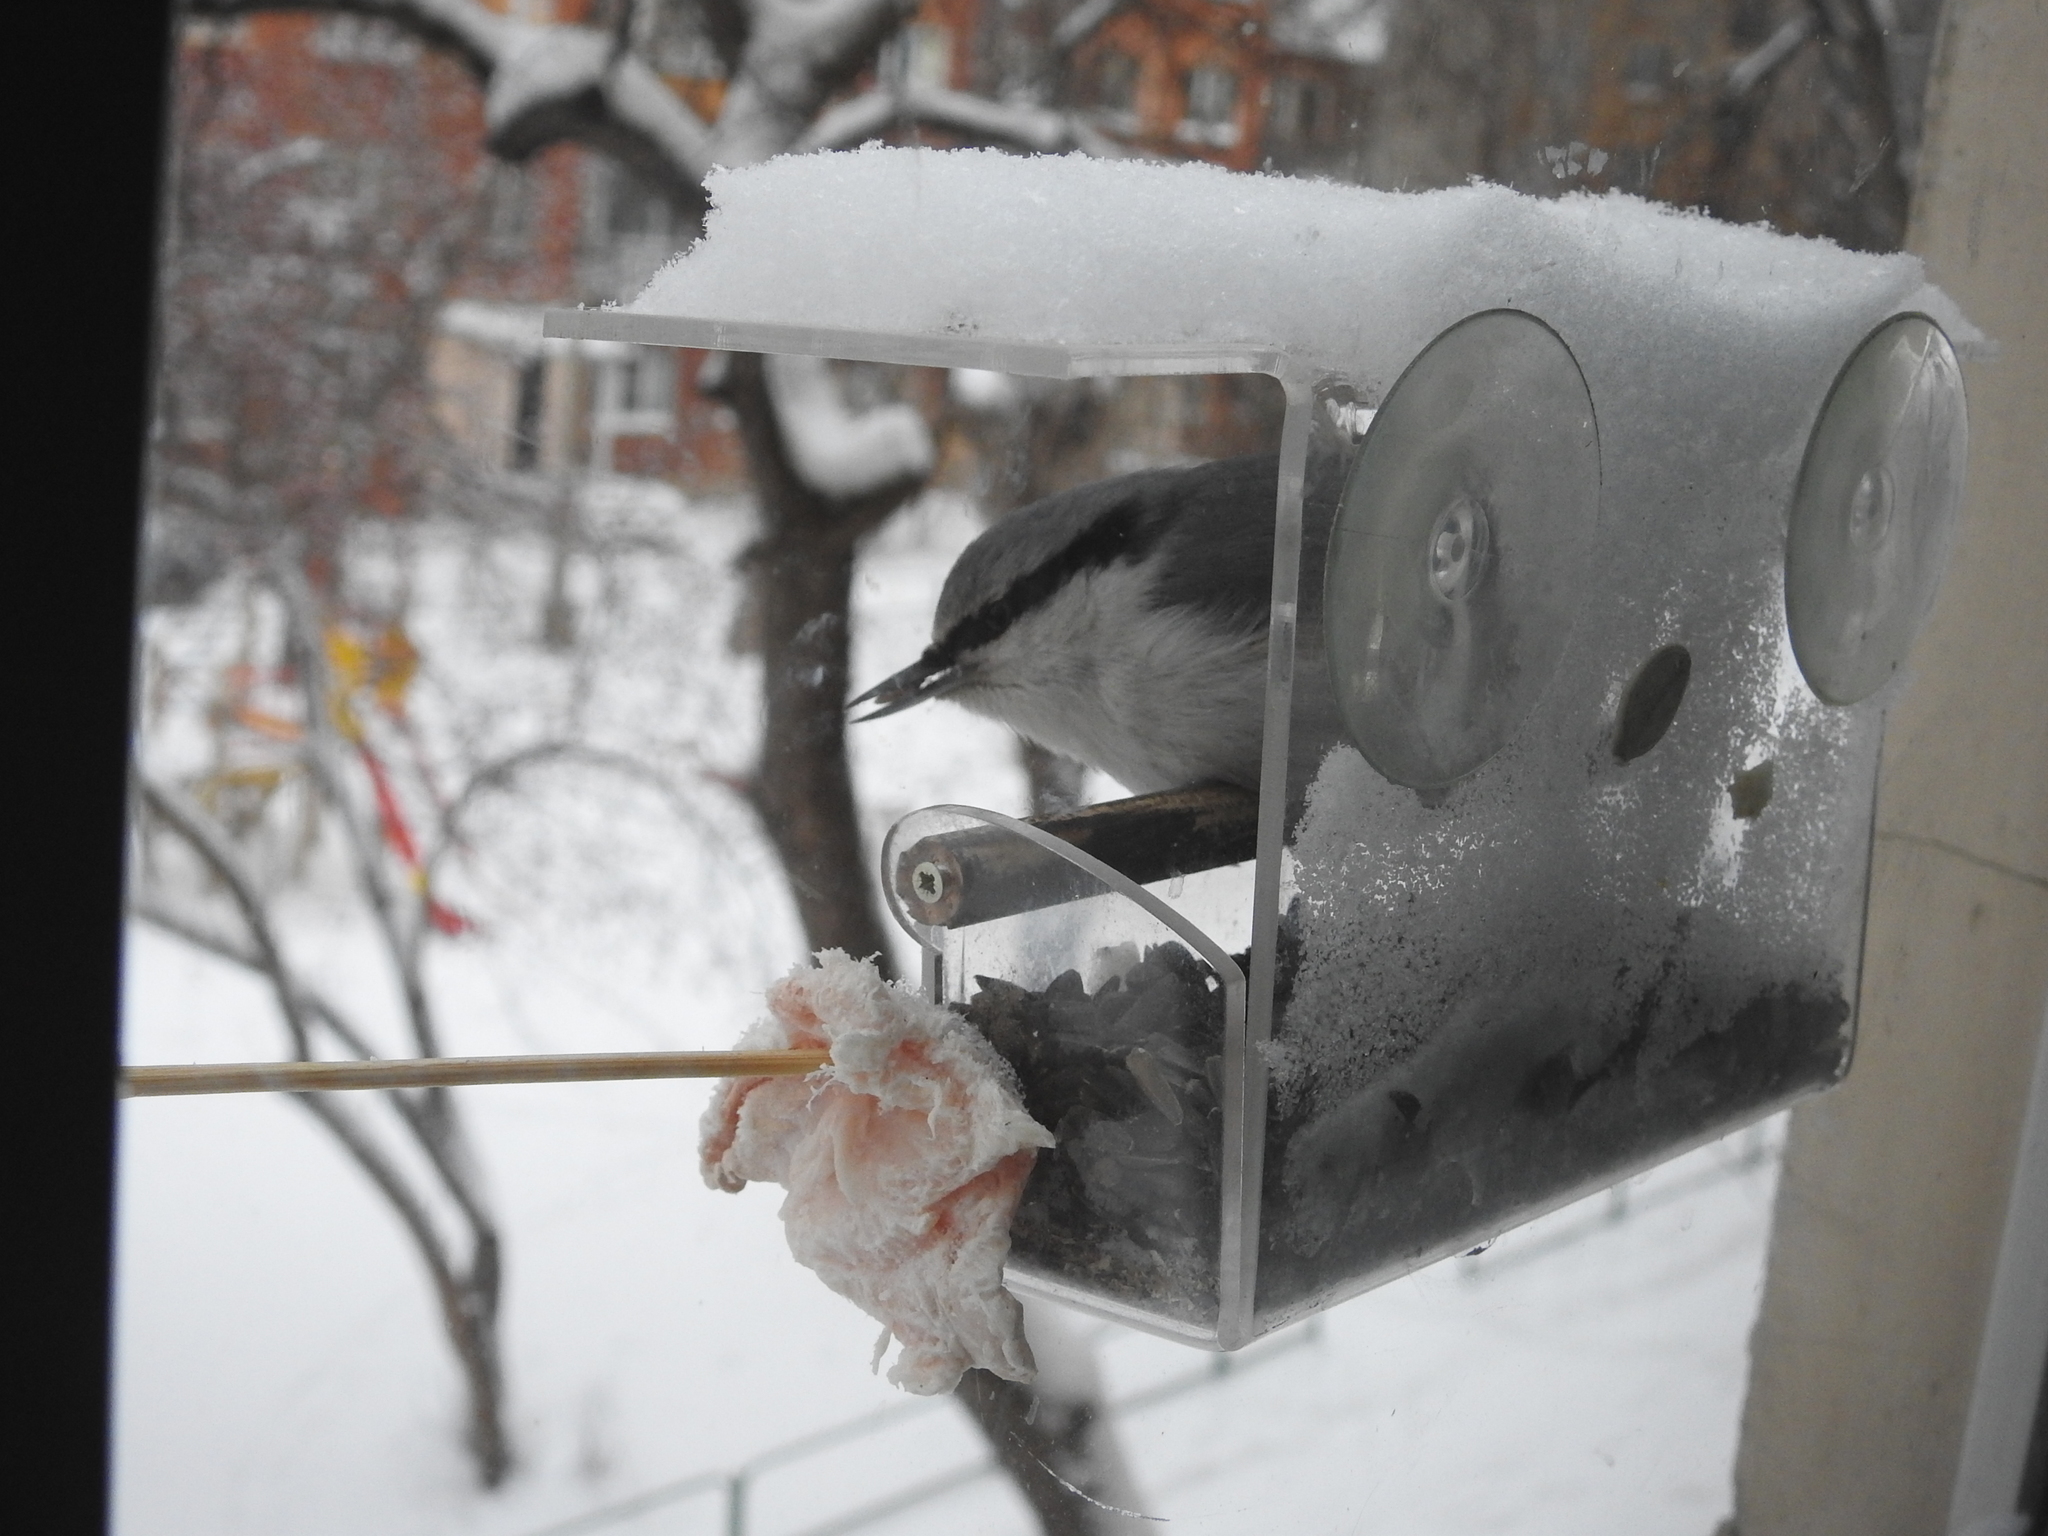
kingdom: Animalia
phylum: Chordata
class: Aves
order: Passeriformes
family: Sittidae
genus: Sitta
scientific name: Sitta europaea
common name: Eurasian nuthatch
